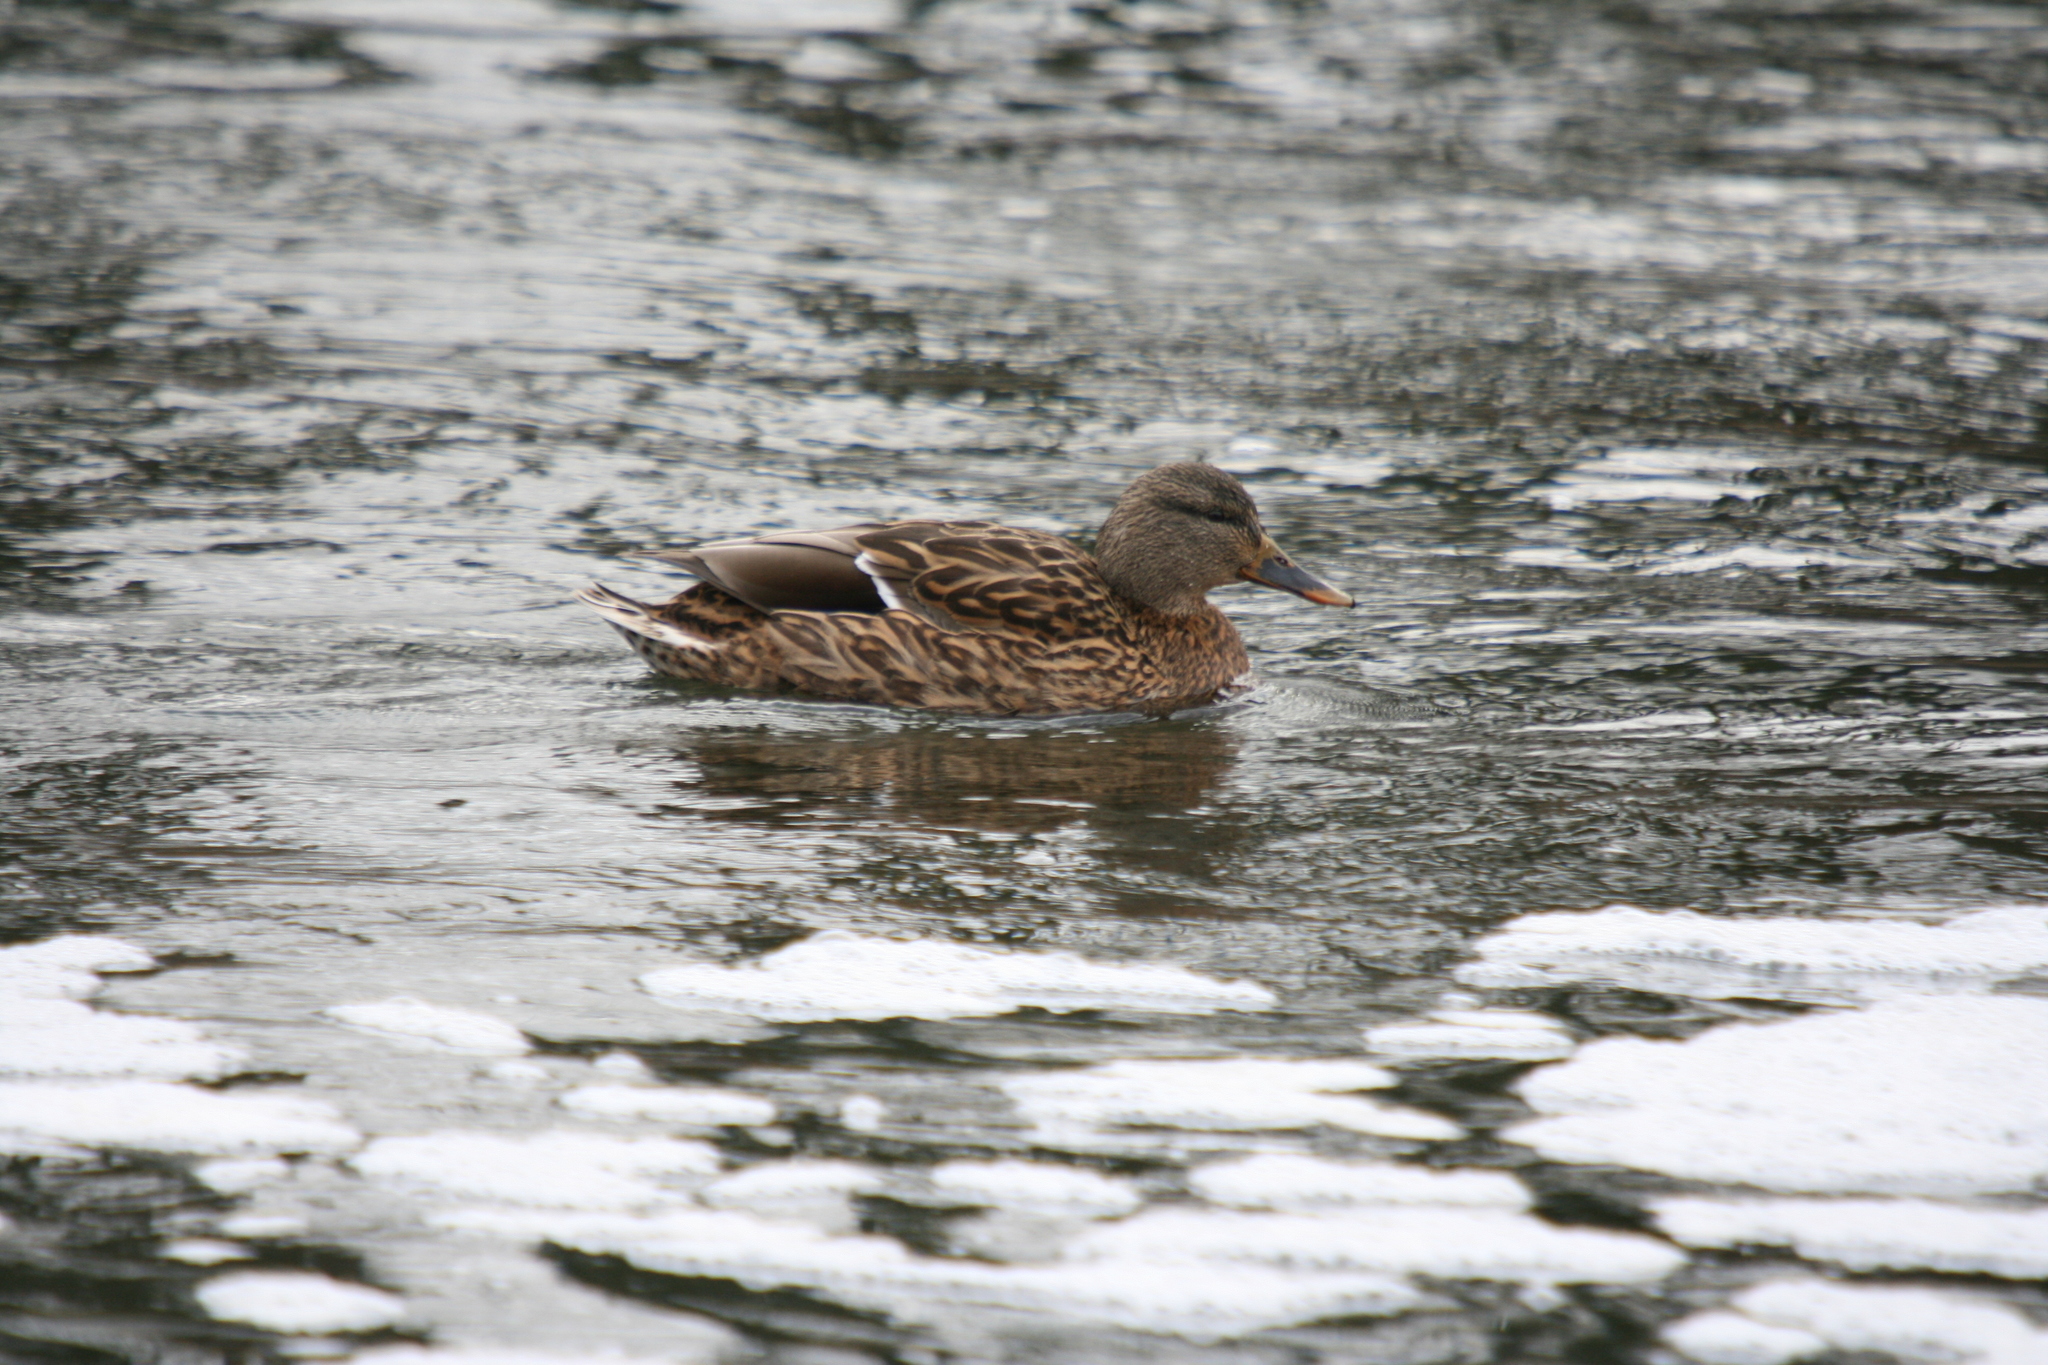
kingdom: Animalia
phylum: Chordata
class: Aves
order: Anseriformes
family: Anatidae
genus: Anas
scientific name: Anas platyrhynchos
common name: Mallard
